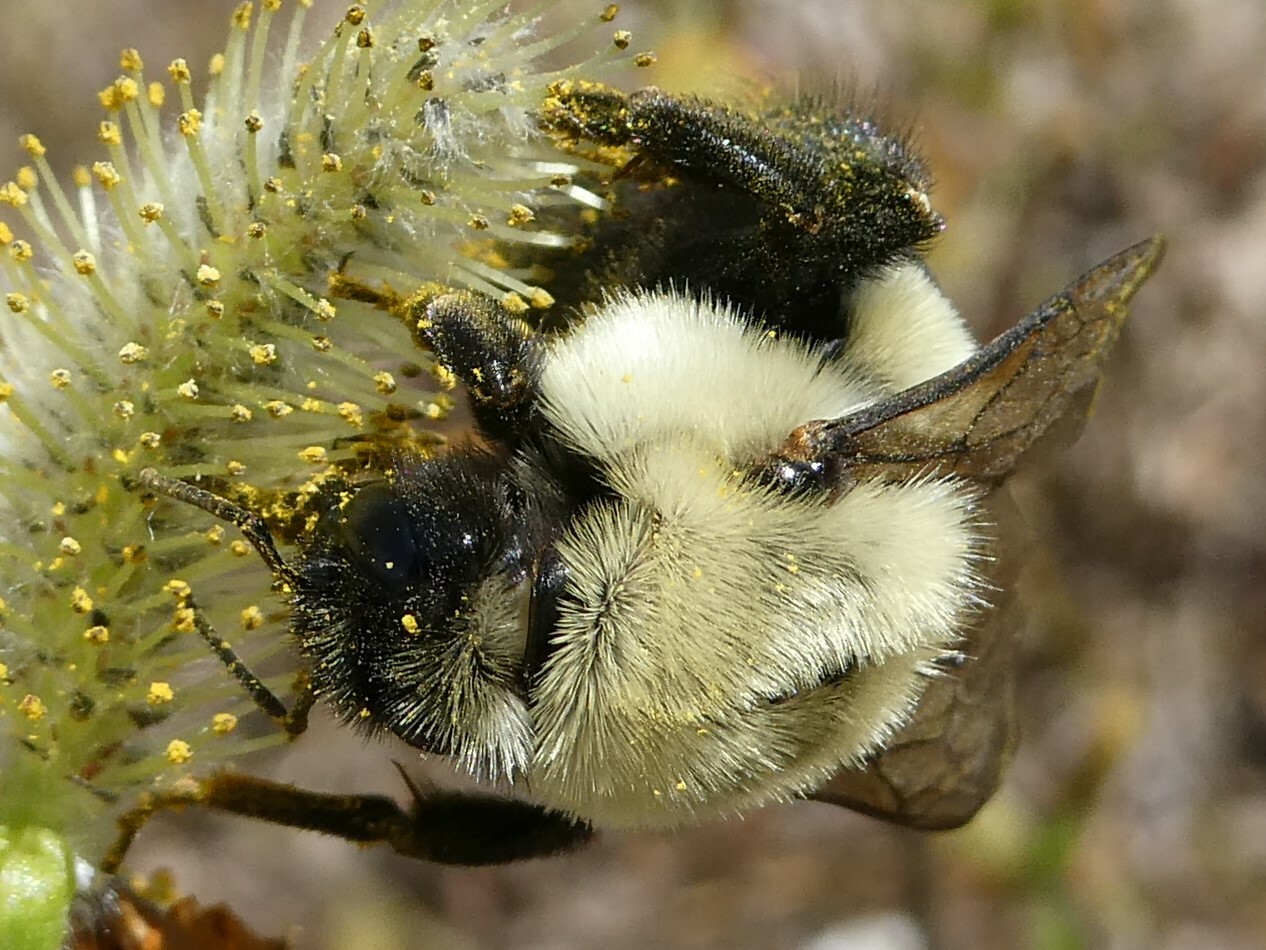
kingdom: Animalia
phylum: Arthropoda
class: Insecta
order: Hymenoptera
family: Apidae
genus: Bombus
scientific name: Bombus impatiens
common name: Common eastern bumble bee
